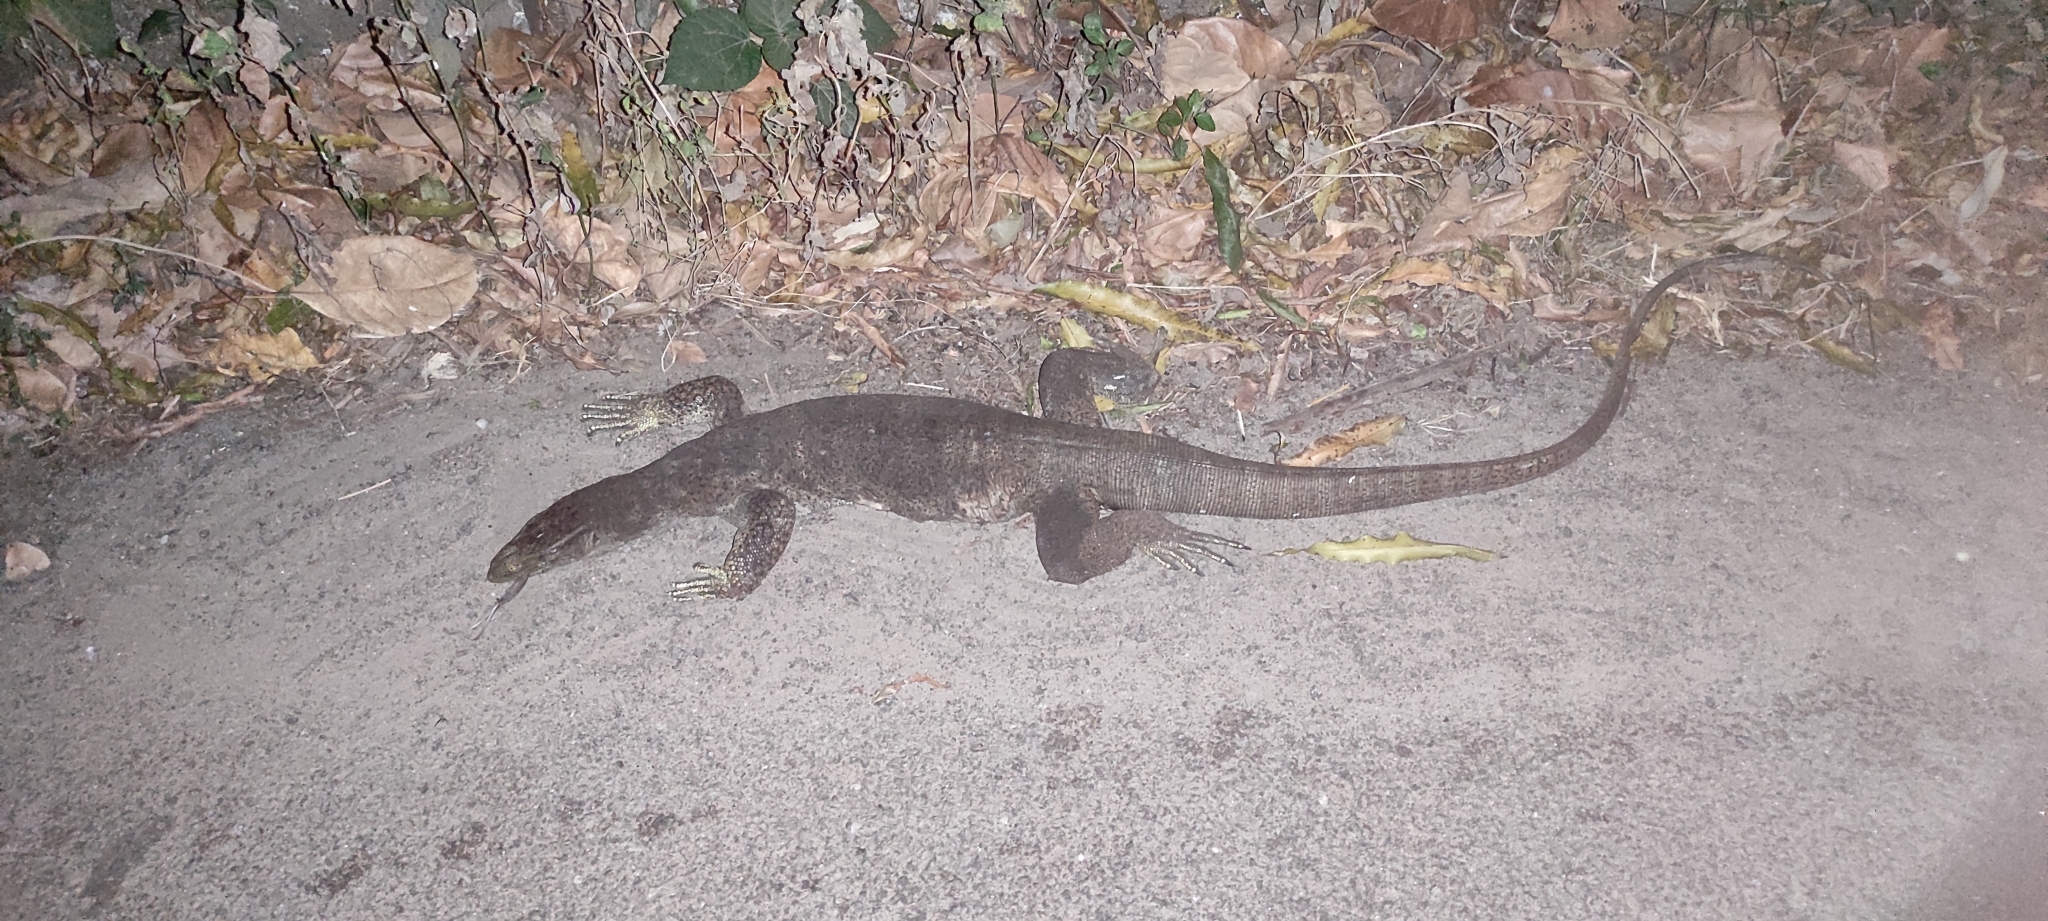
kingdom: Animalia
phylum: Chordata
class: Squamata
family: Varanidae
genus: Varanus
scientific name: Varanus bengalensis
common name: Bengal monitor
